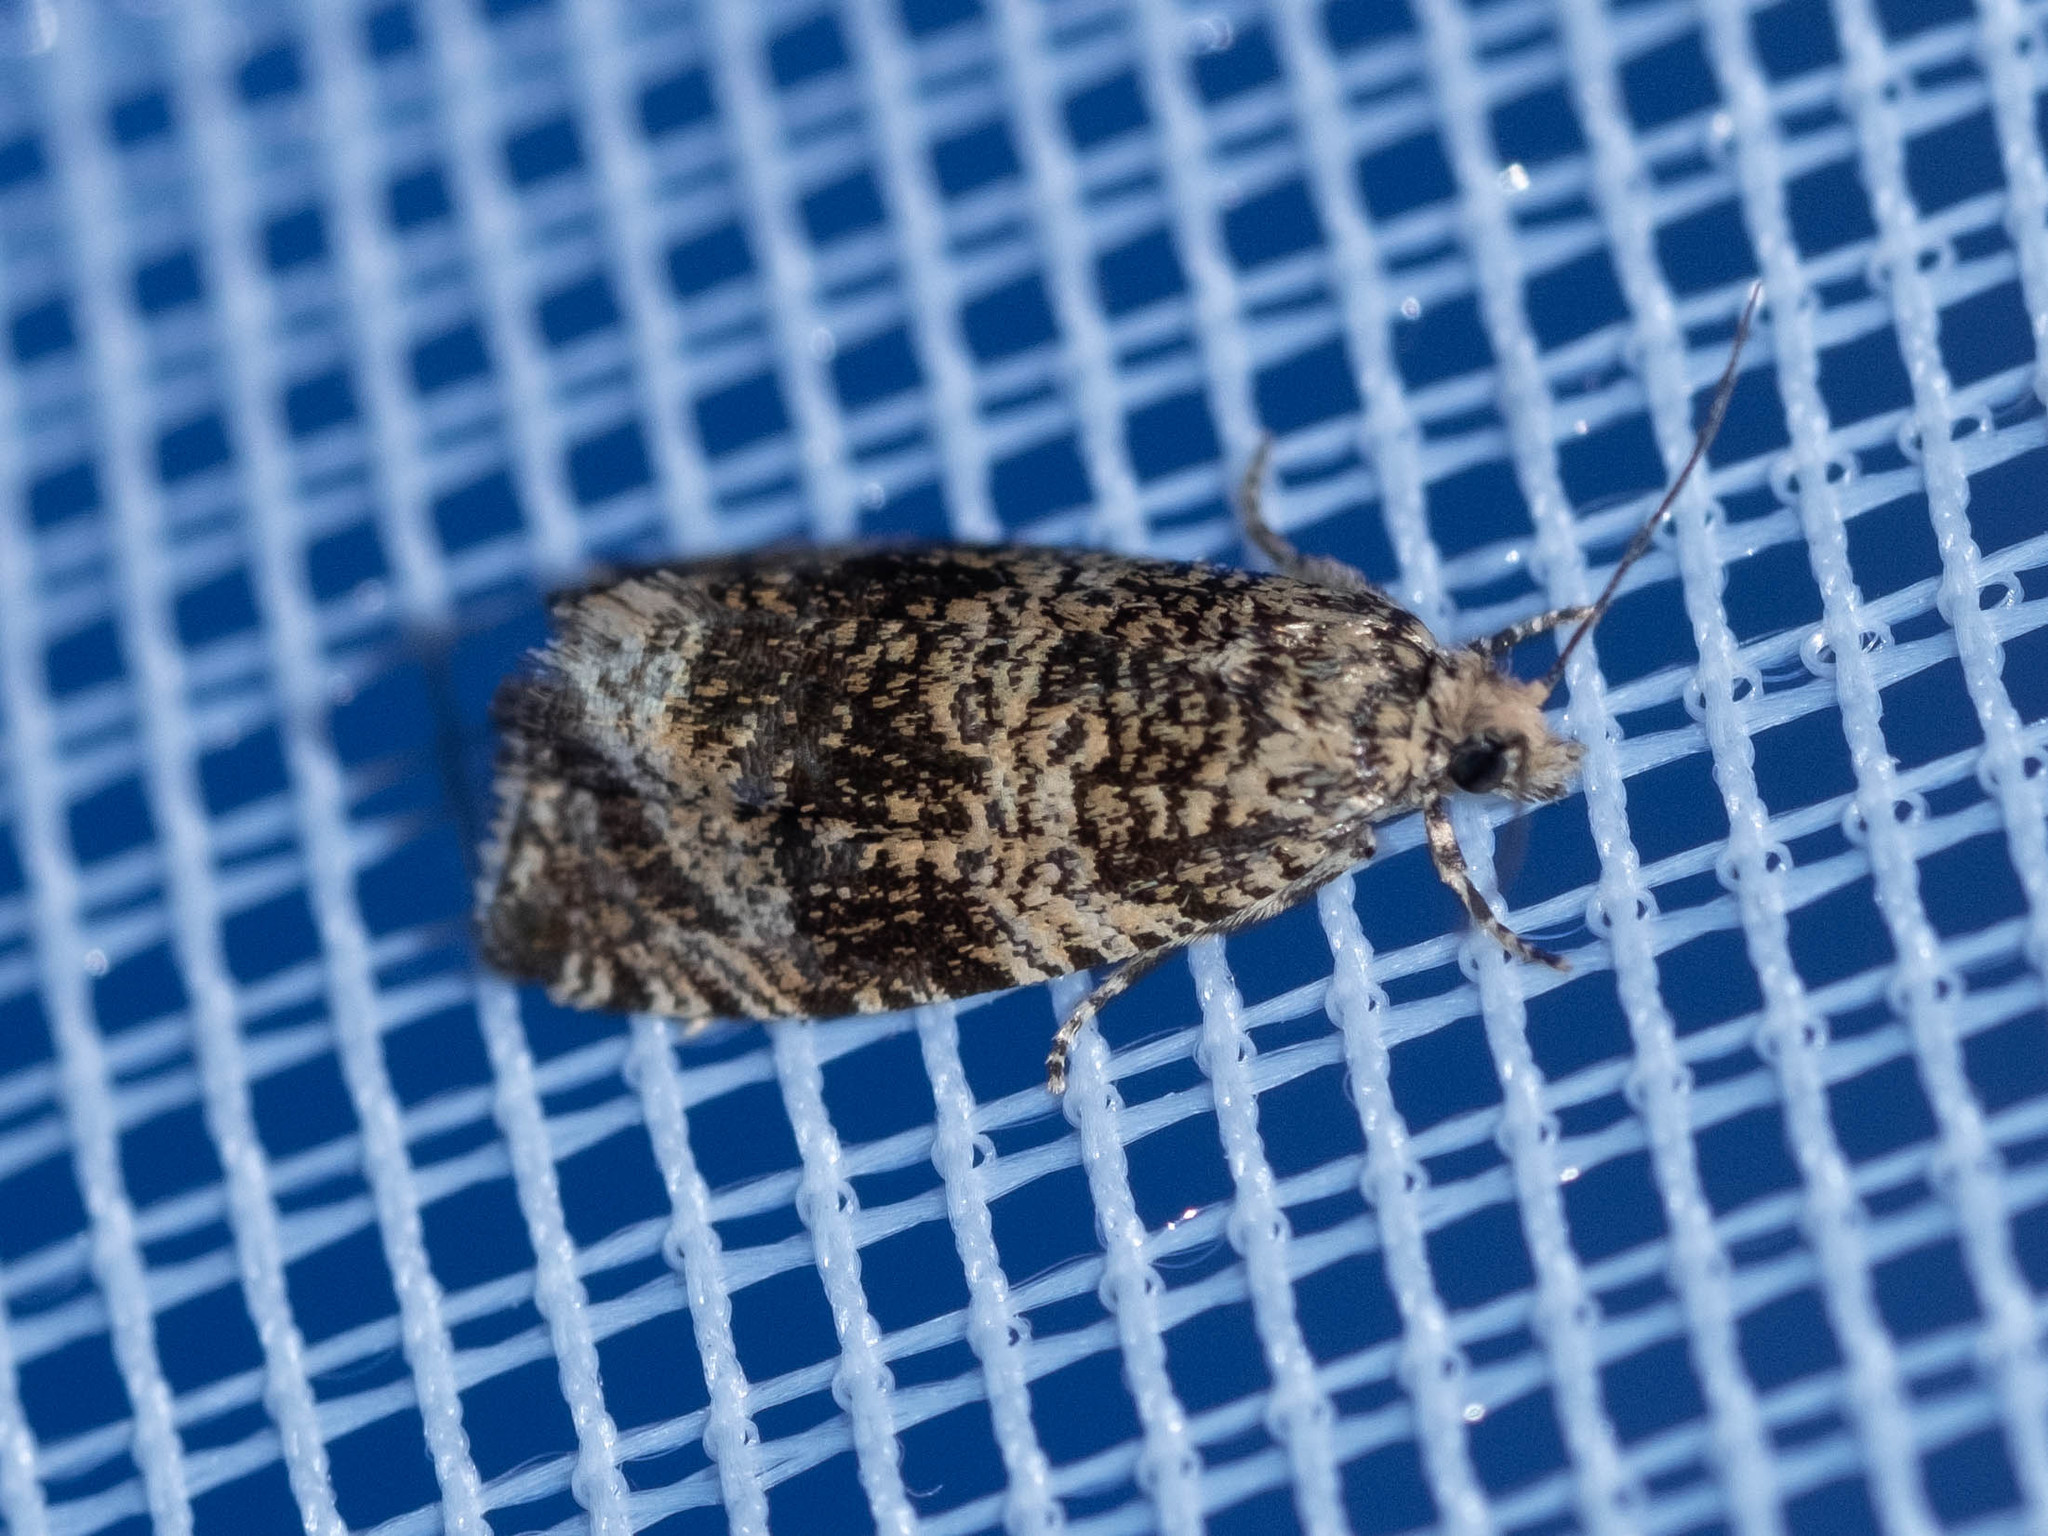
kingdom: Animalia
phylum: Arthropoda
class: Insecta
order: Lepidoptera
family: Tortricidae
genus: Syricoris
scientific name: Syricoris lacunana
